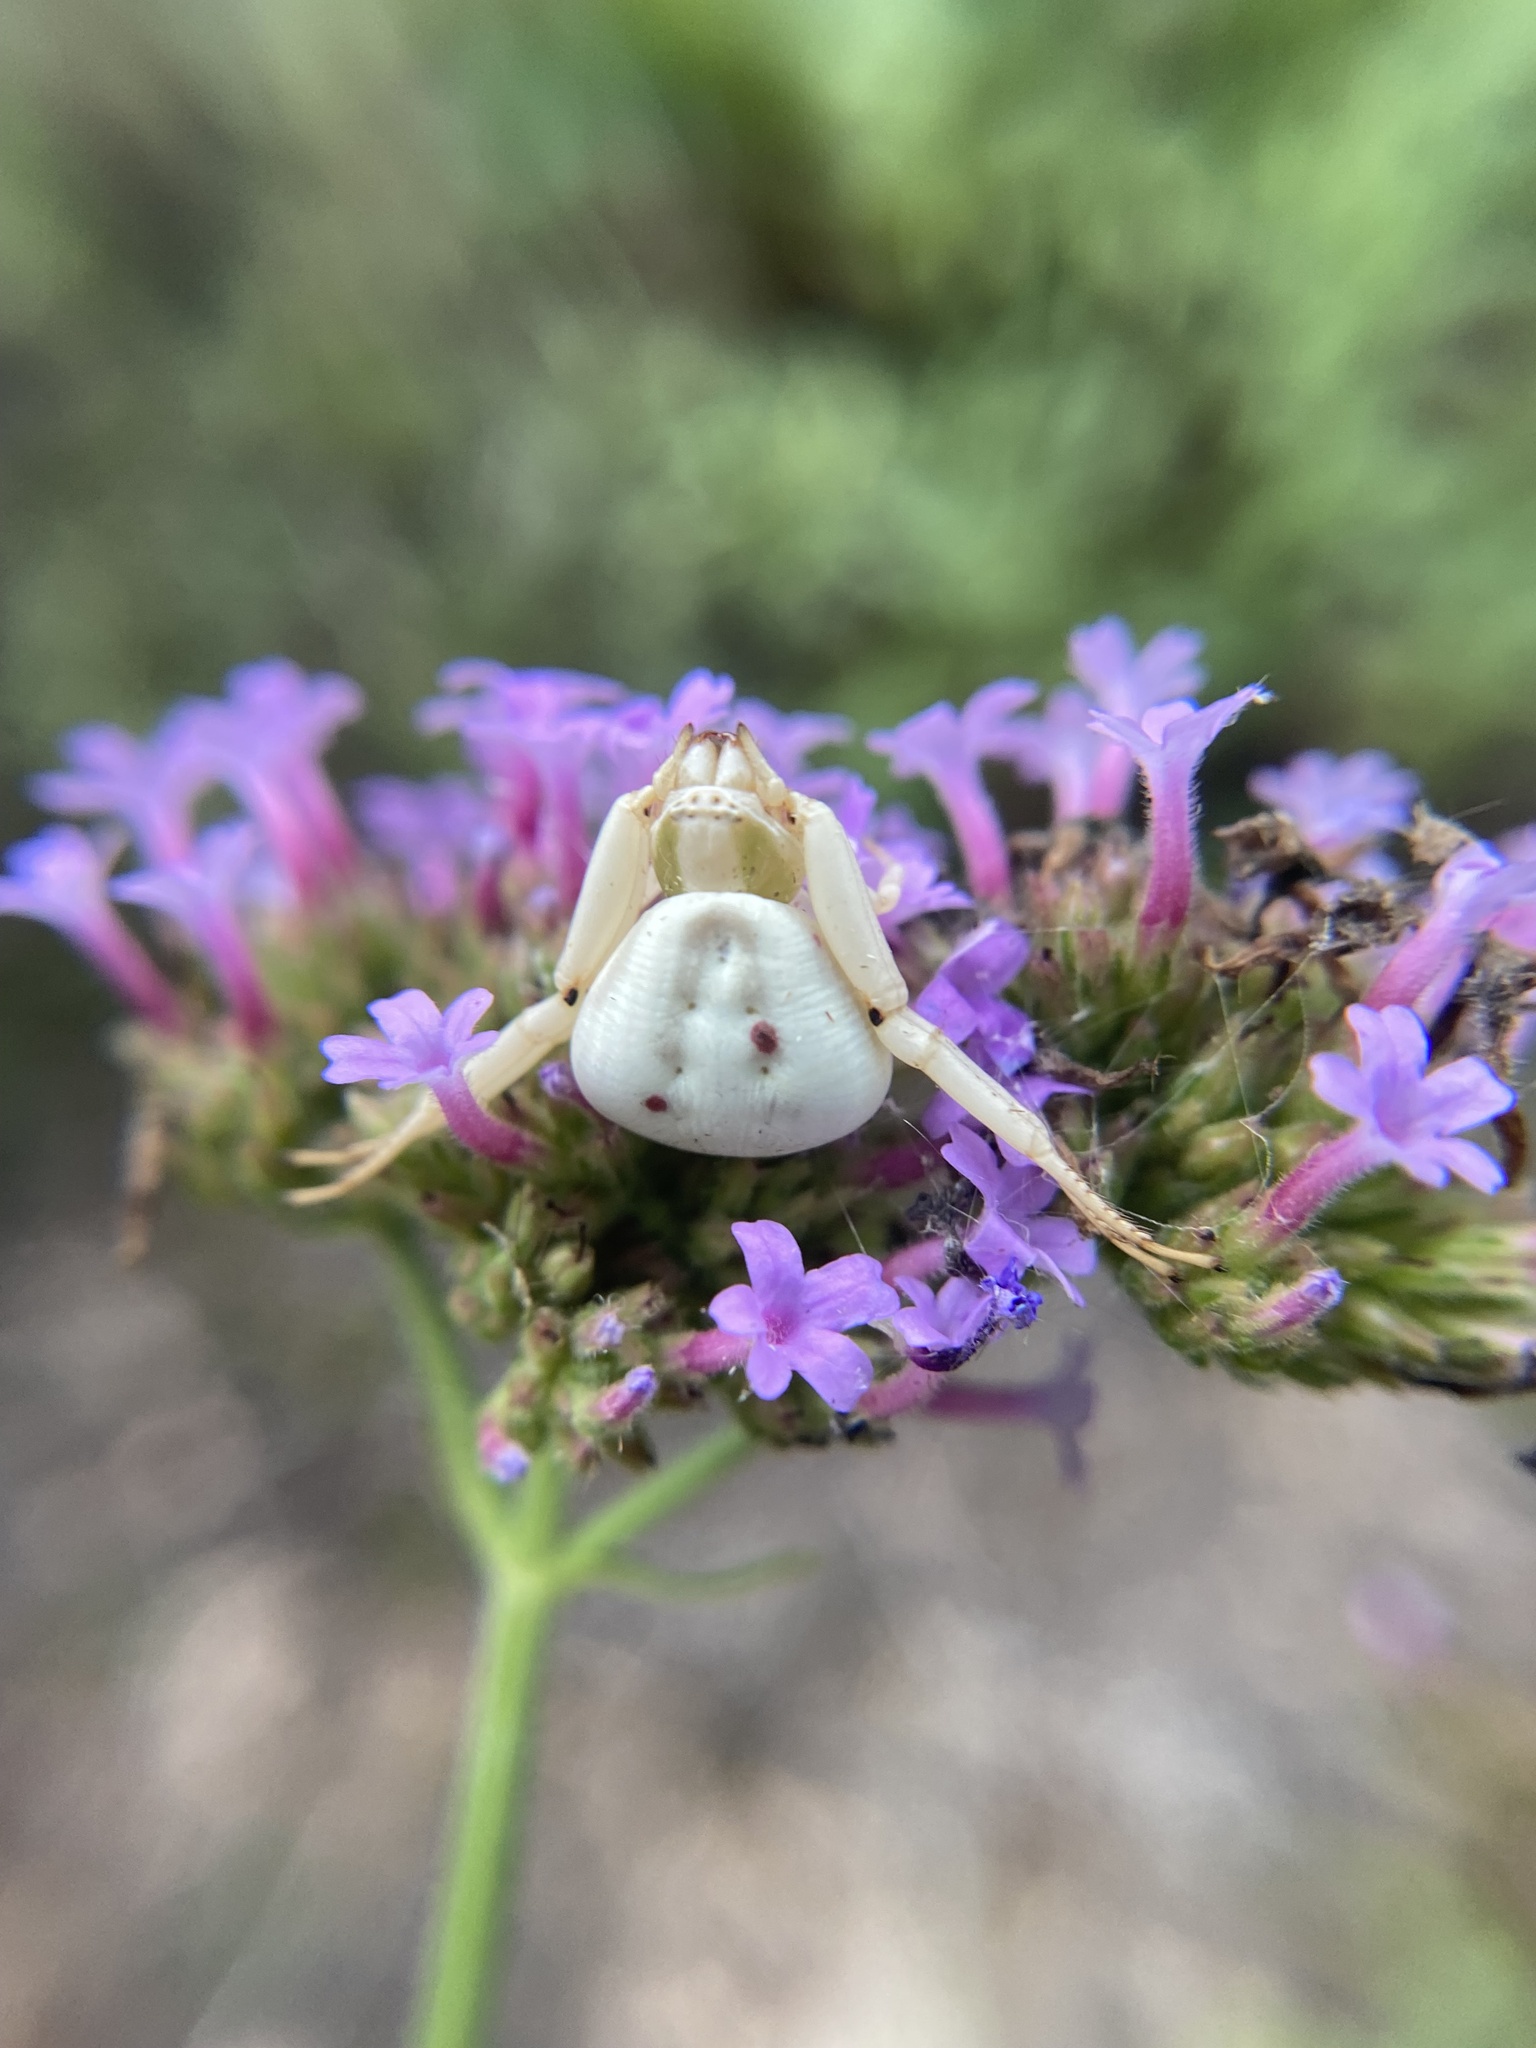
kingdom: Animalia
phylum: Arthropoda
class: Arachnida
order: Araneae
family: Thomisidae
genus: Misumenoides
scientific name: Misumenoides formosipes
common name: White-banded crab spider
